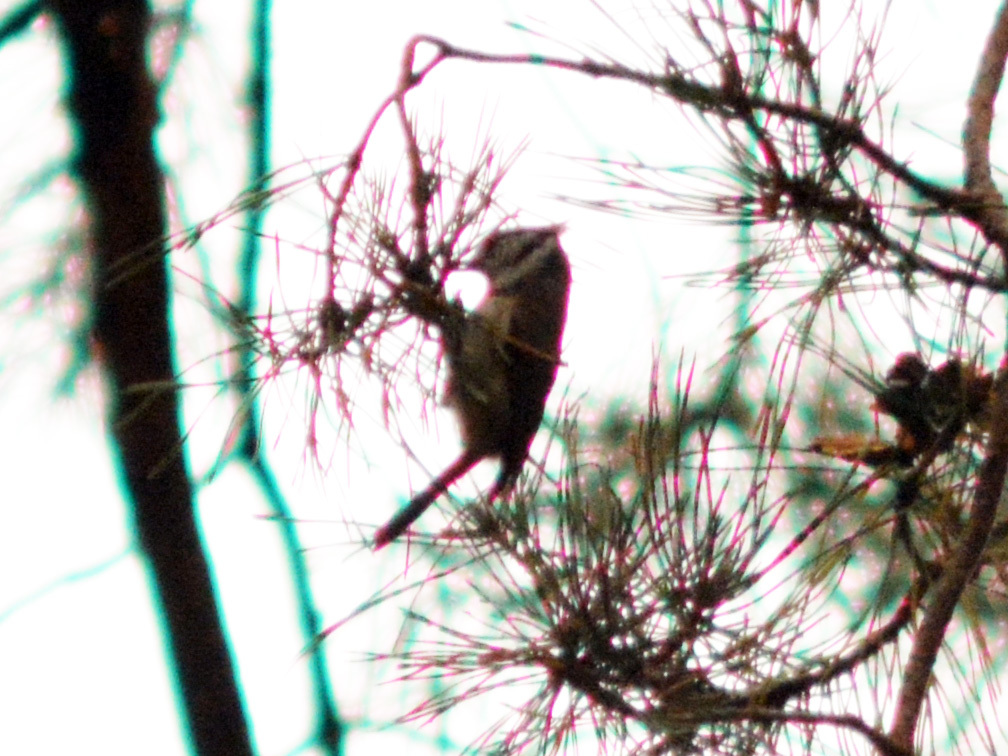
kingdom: Animalia
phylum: Chordata
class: Aves
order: Passeriformes
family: Paridae
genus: Lophophanes
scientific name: Lophophanes cristatus
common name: European crested tit
